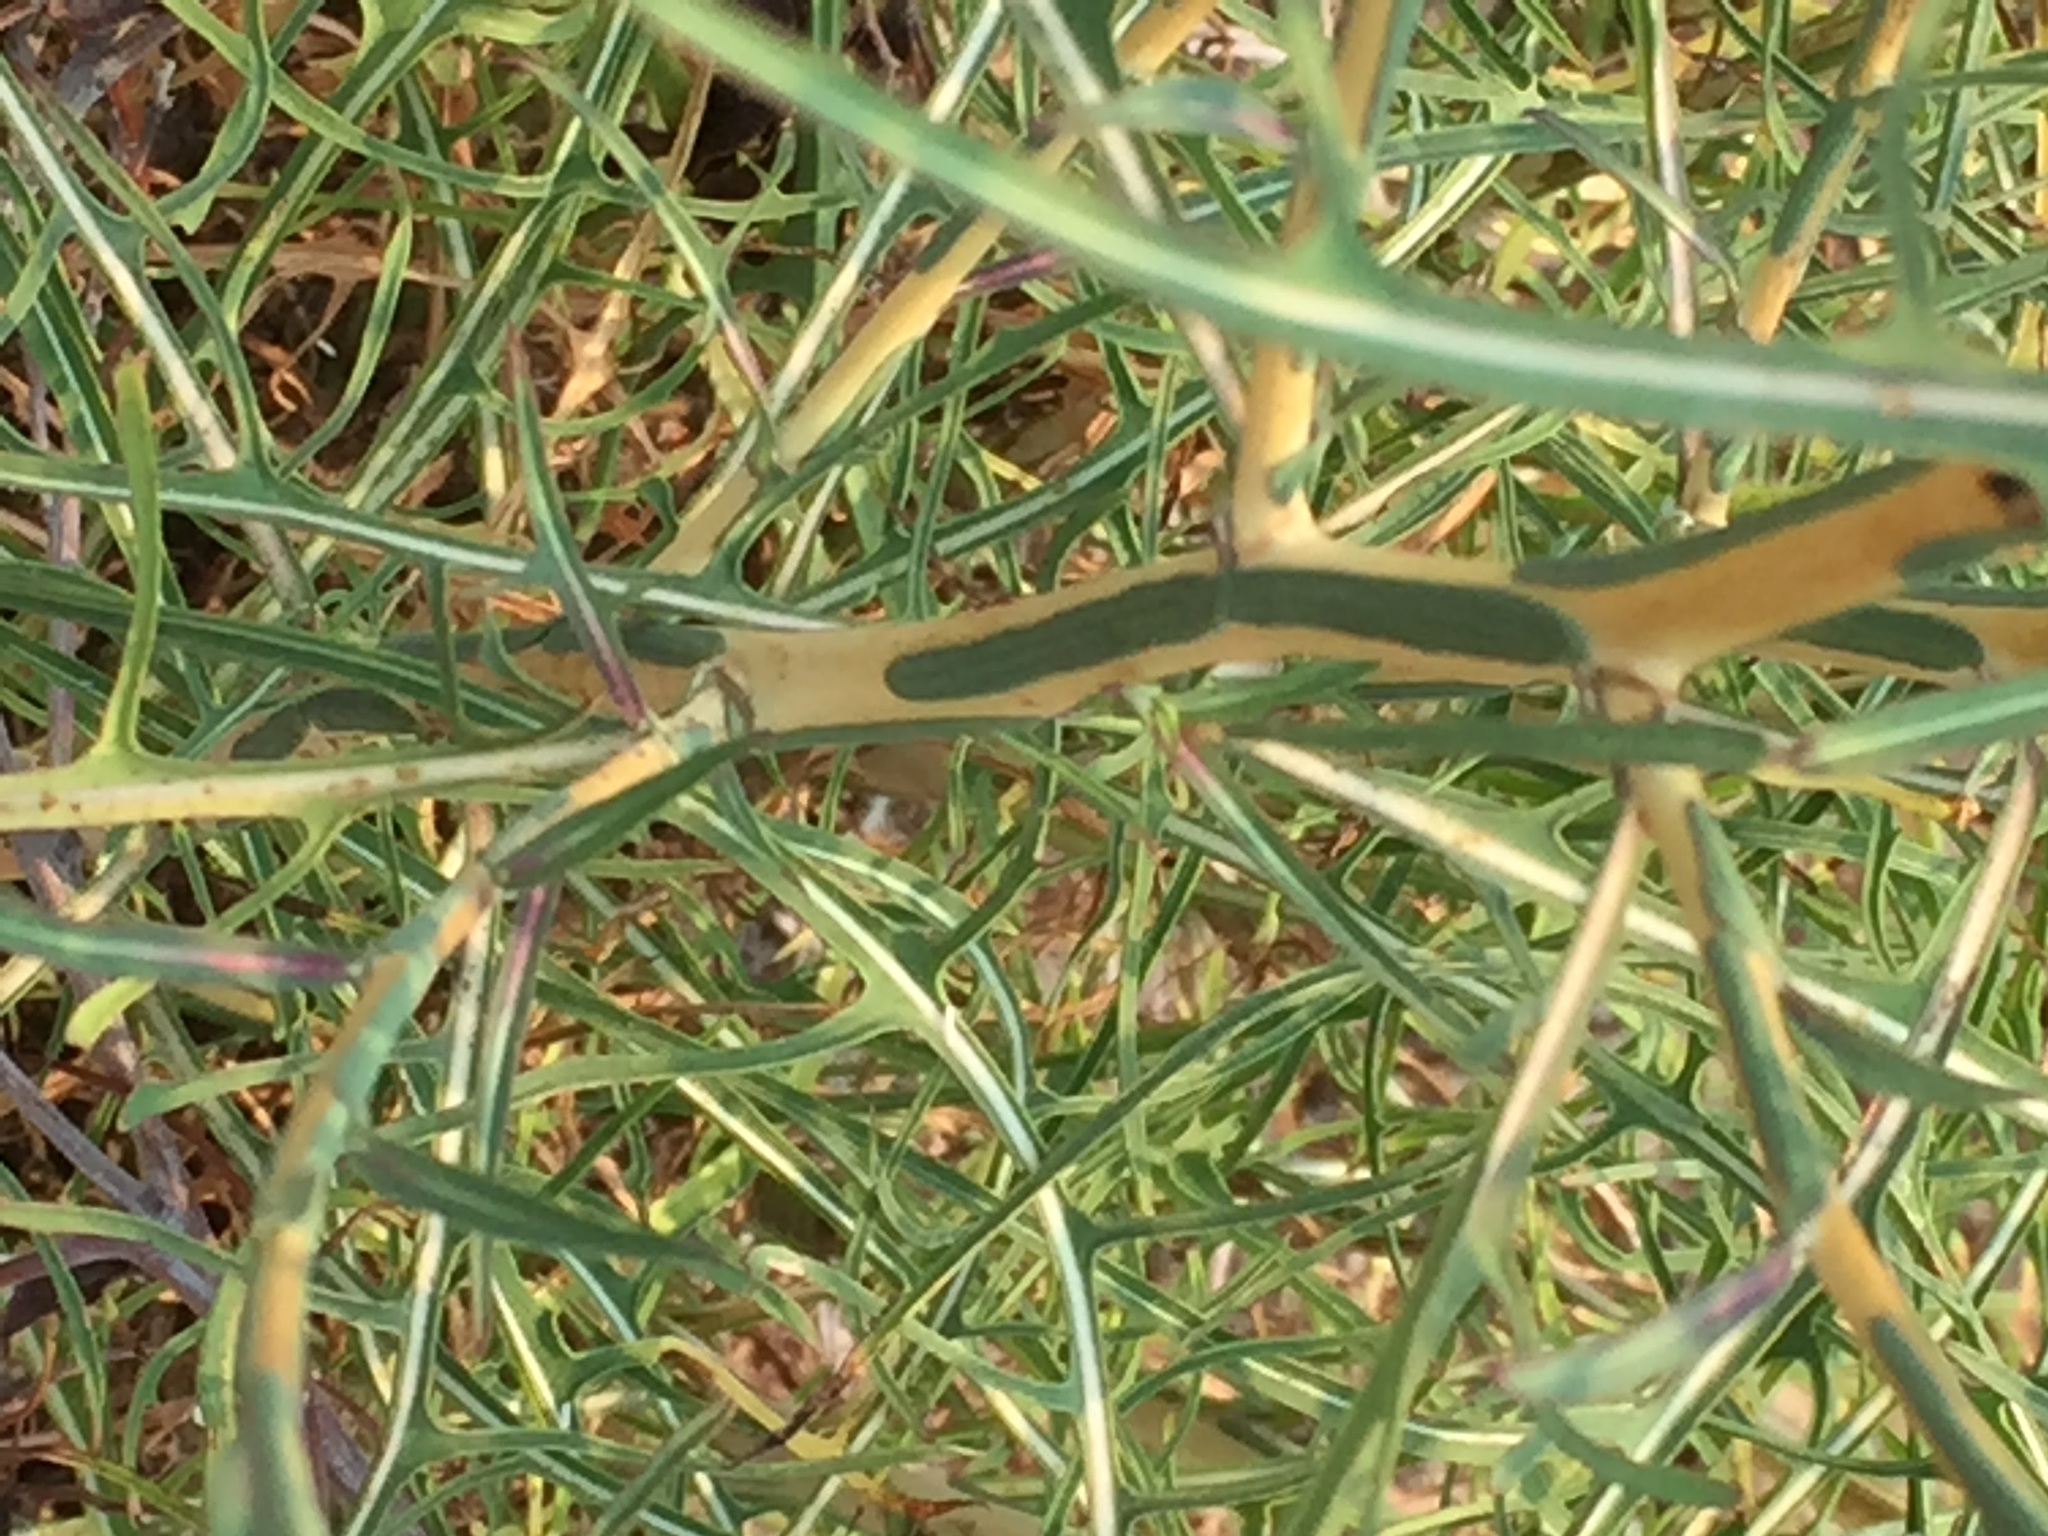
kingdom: Plantae
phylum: Tracheophyta
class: Magnoliopsida
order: Asterales
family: Asteraceae
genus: Lactuca
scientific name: Lactuca viminea
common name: Pliant lettuce
